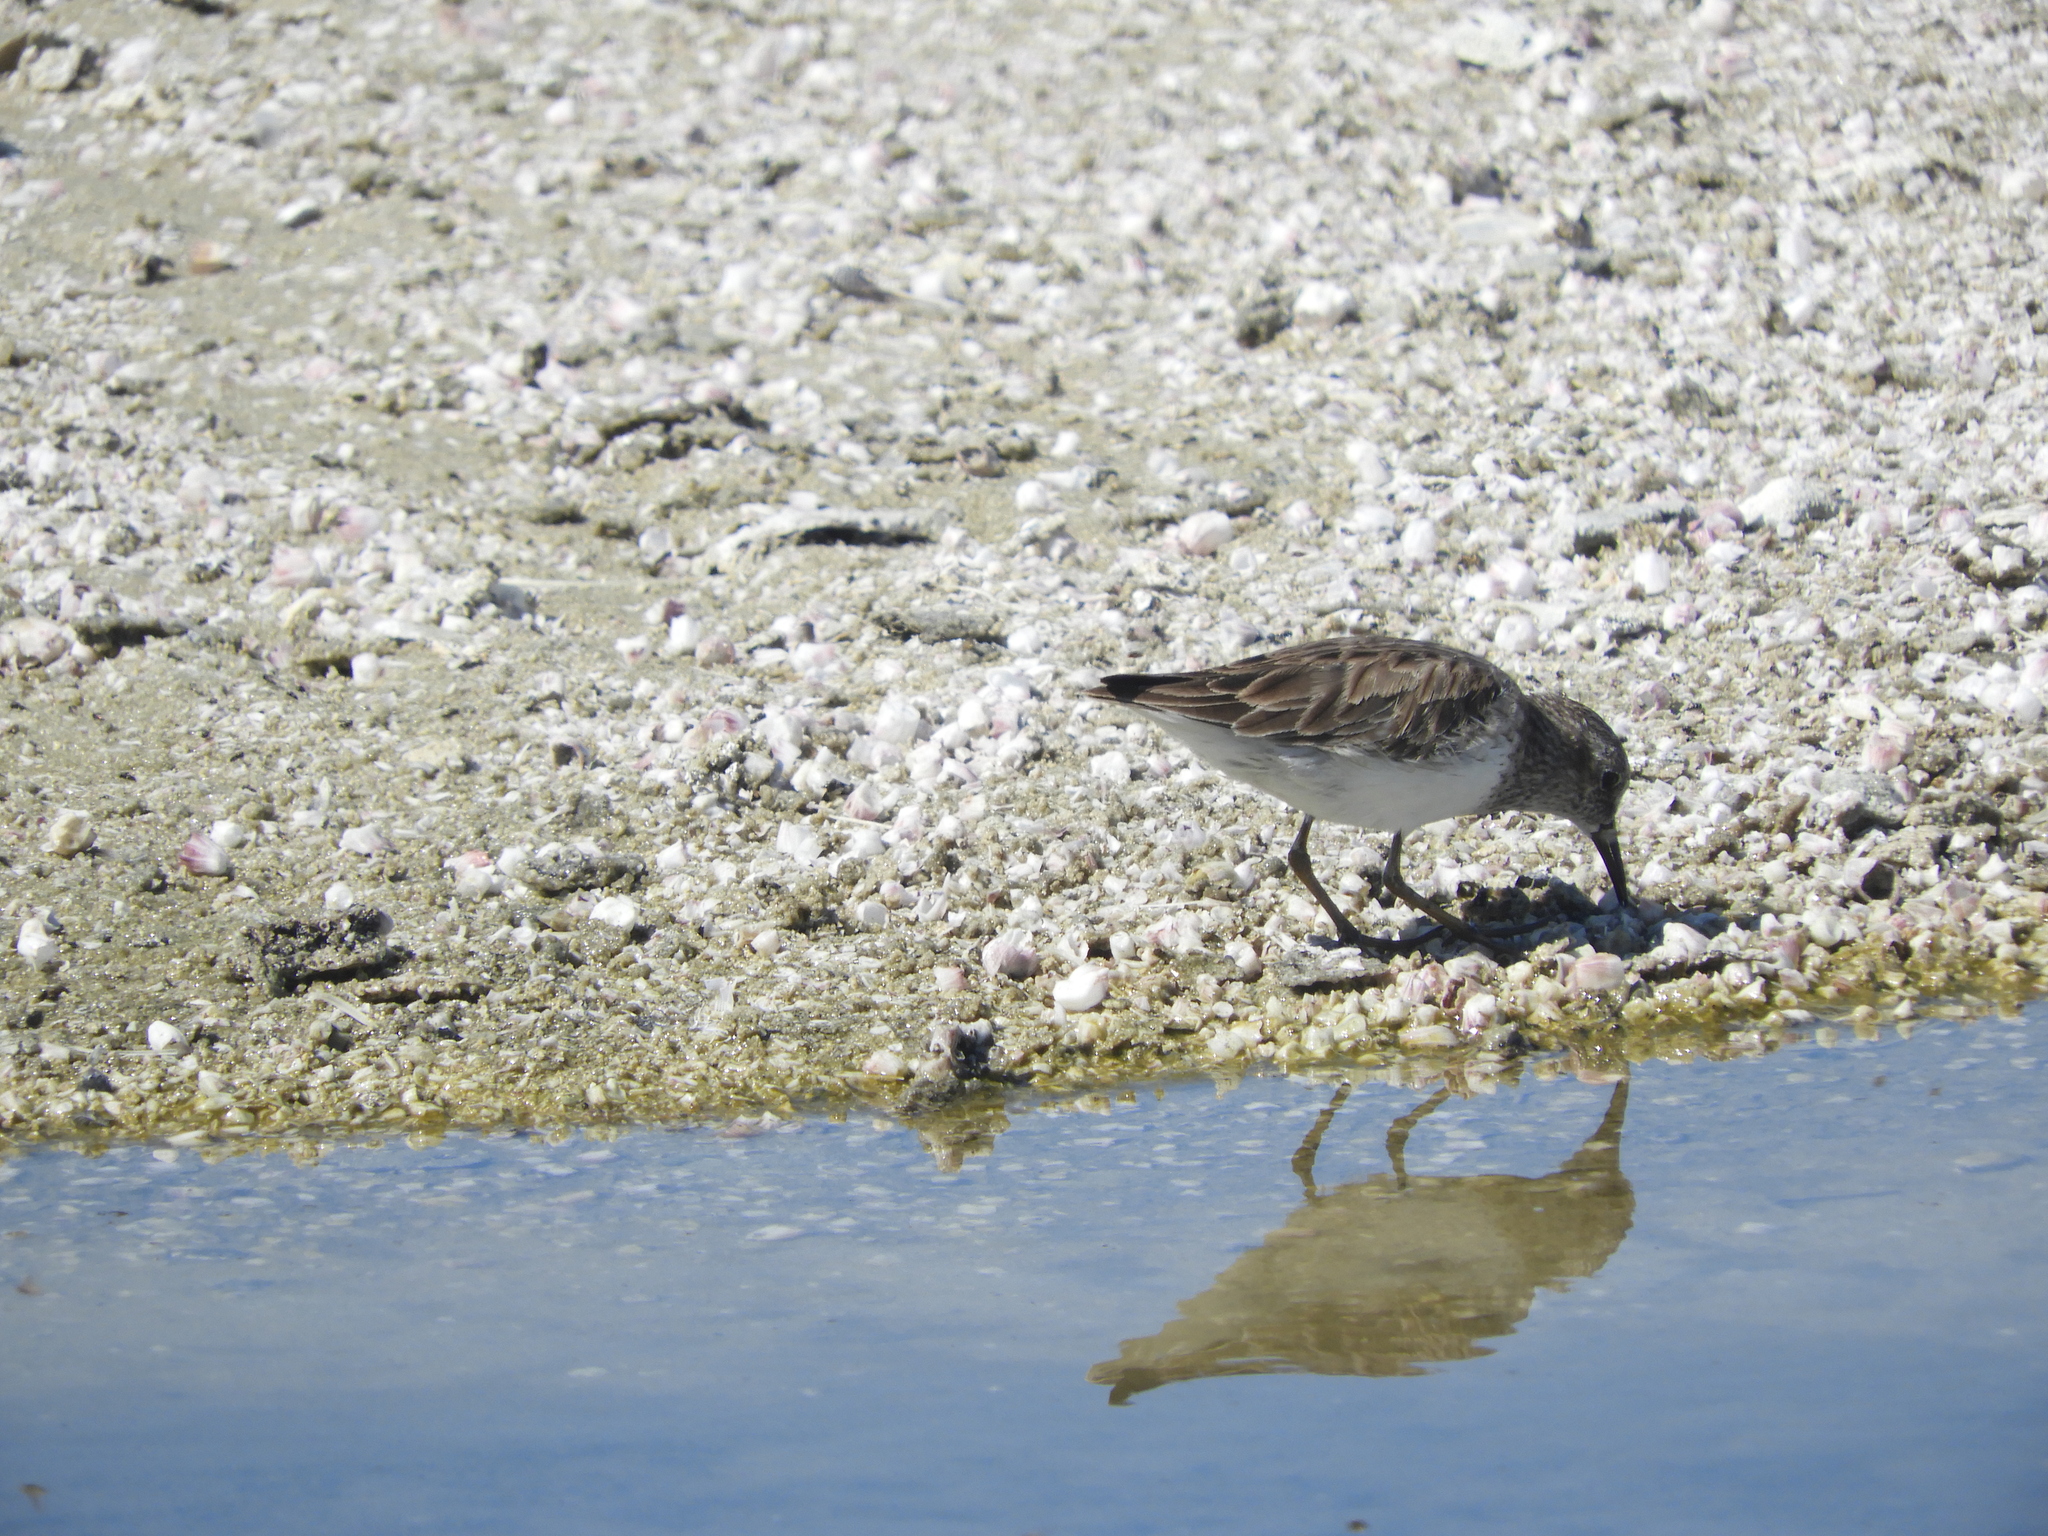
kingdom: Animalia
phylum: Chordata
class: Aves
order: Charadriiformes
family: Scolopacidae
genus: Calidris
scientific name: Calidris minutilla
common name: Least sandpiper
